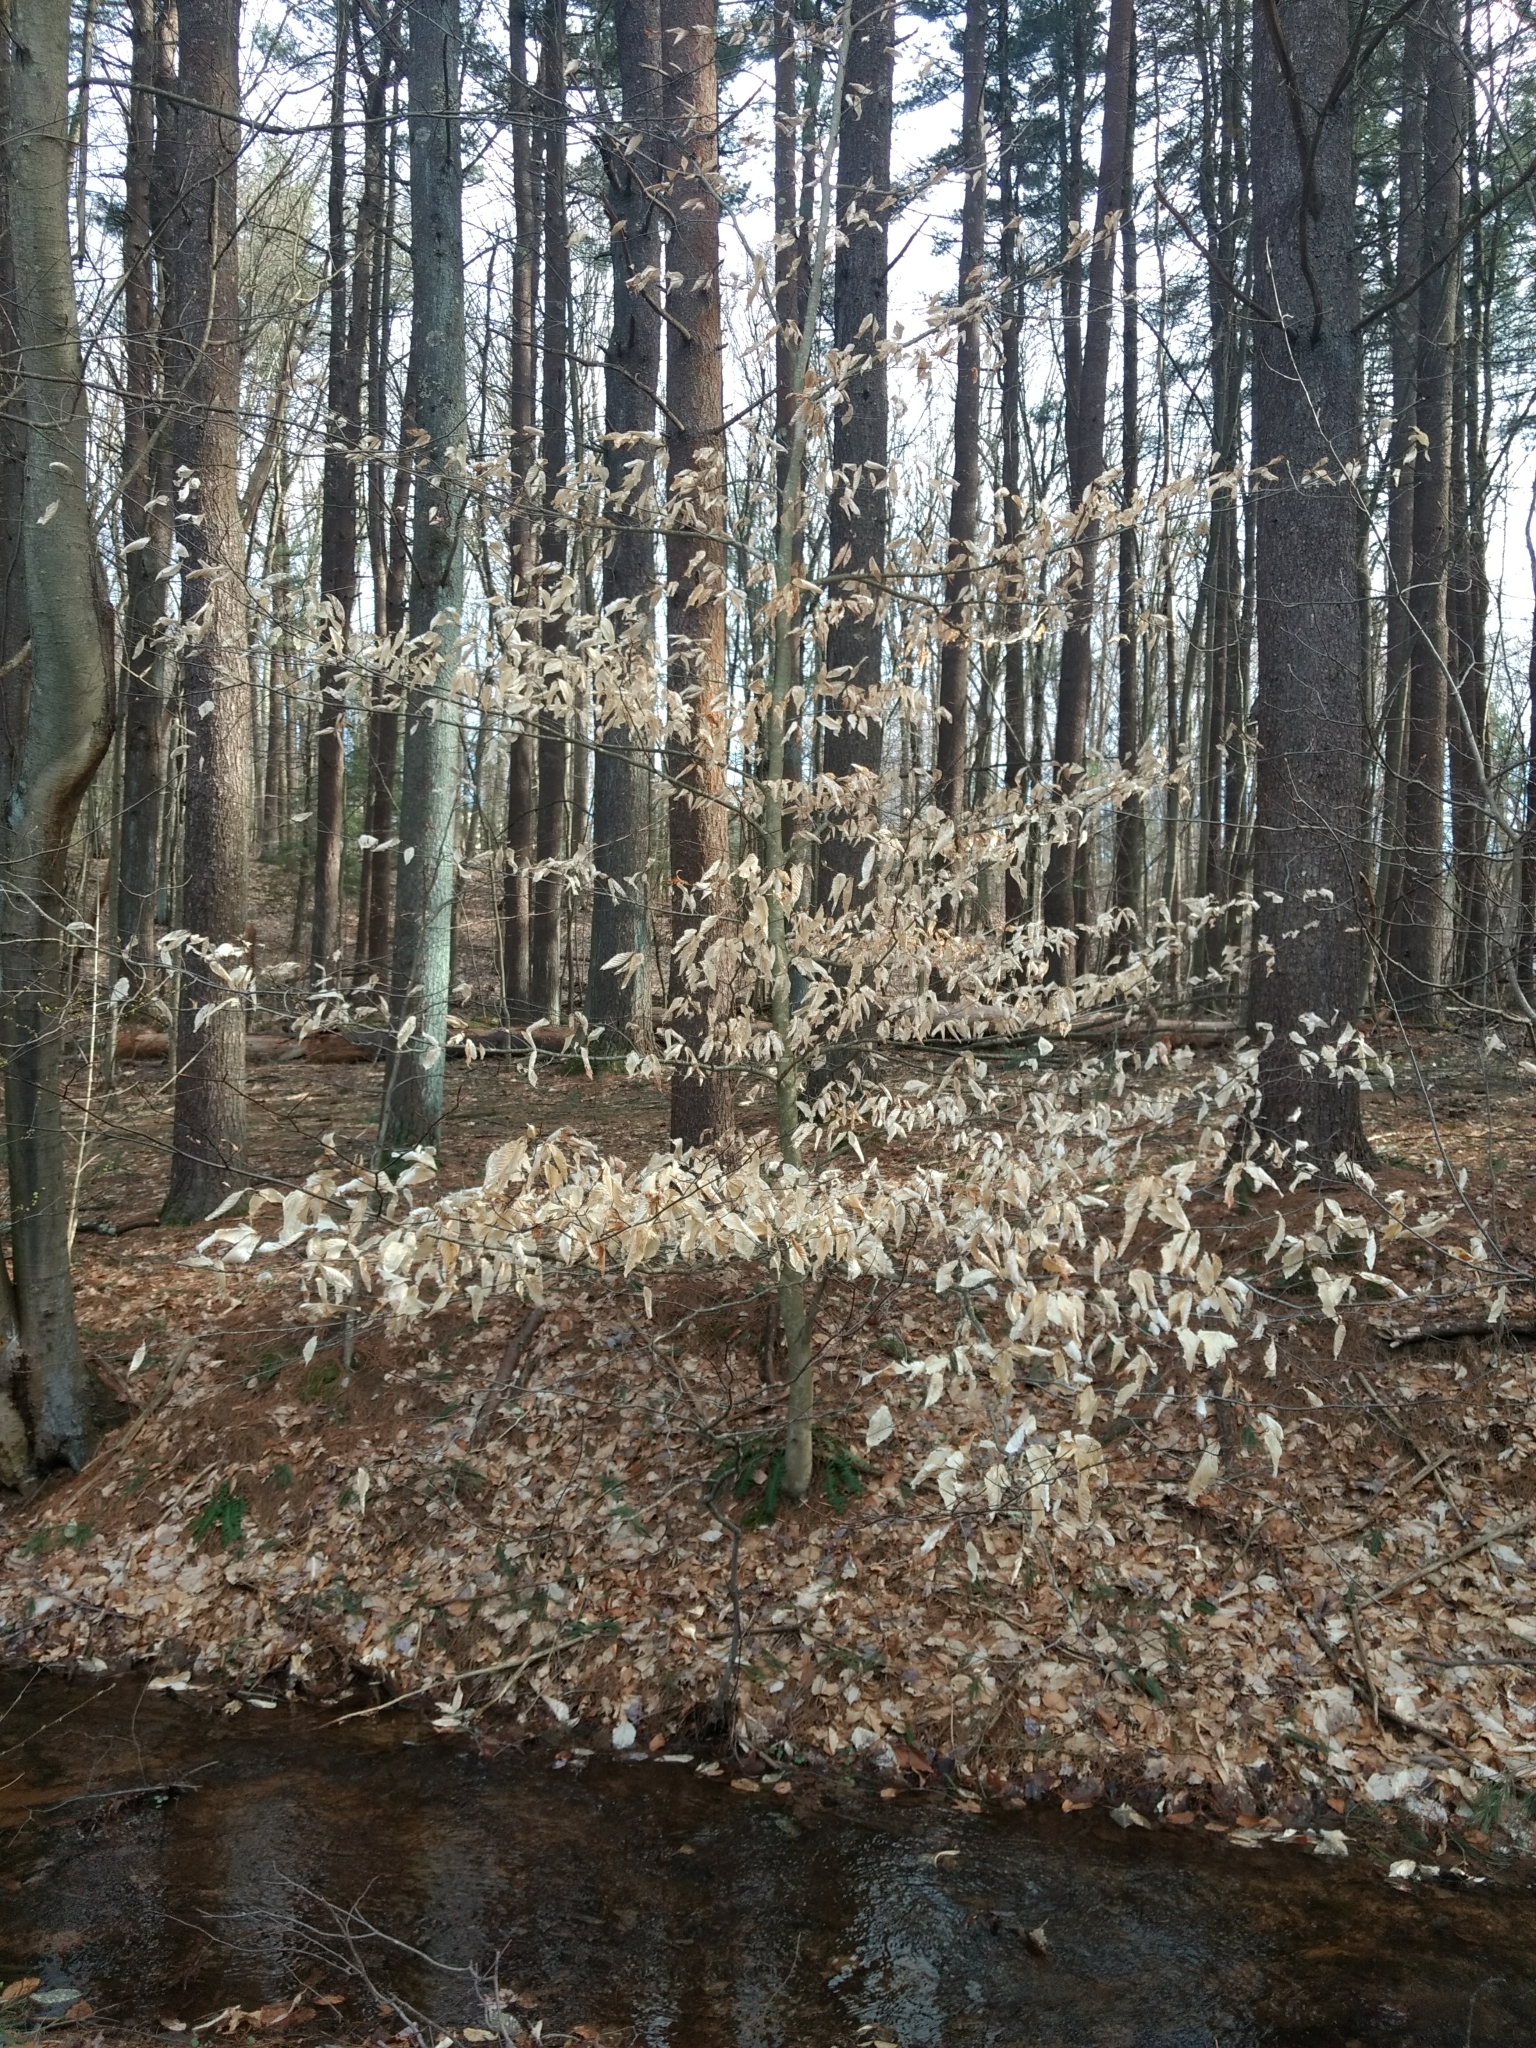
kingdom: Plantae
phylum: Tracheophyta
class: Magnoliopsida
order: Fagales
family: Fagaceae
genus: Fagus
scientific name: Fagus grandifolia
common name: American beech
